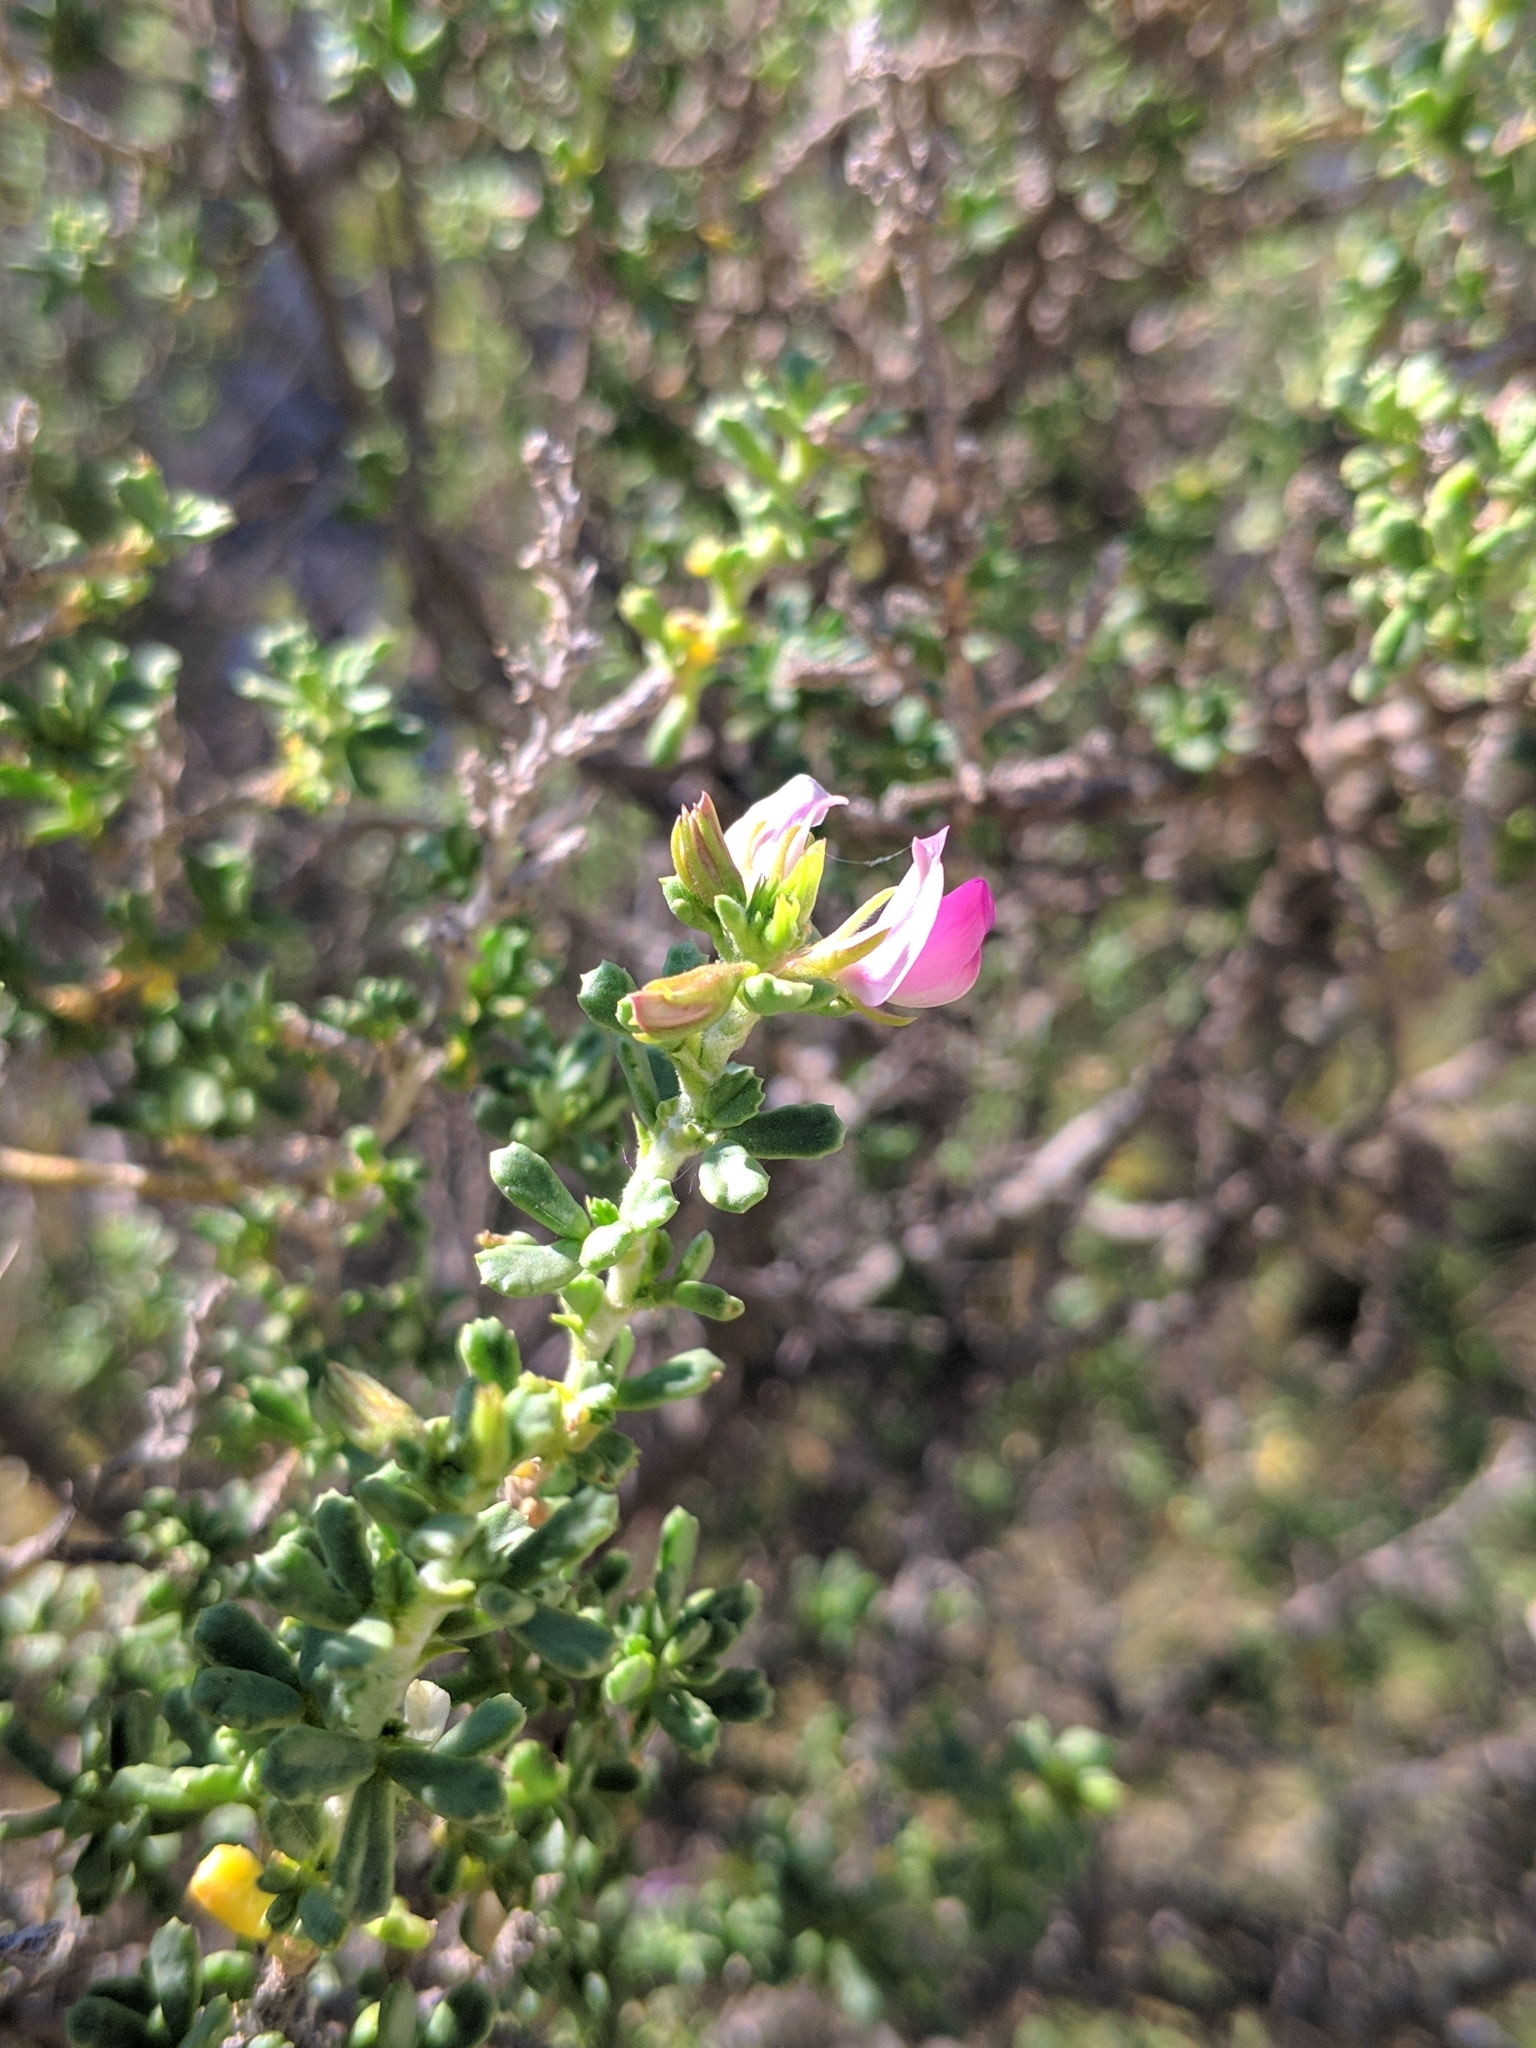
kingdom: Plantae
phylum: Tracheophyta
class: Magnoliopsida
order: Fabales
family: Fabaceae
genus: Ononis
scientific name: Ononis tridentata
